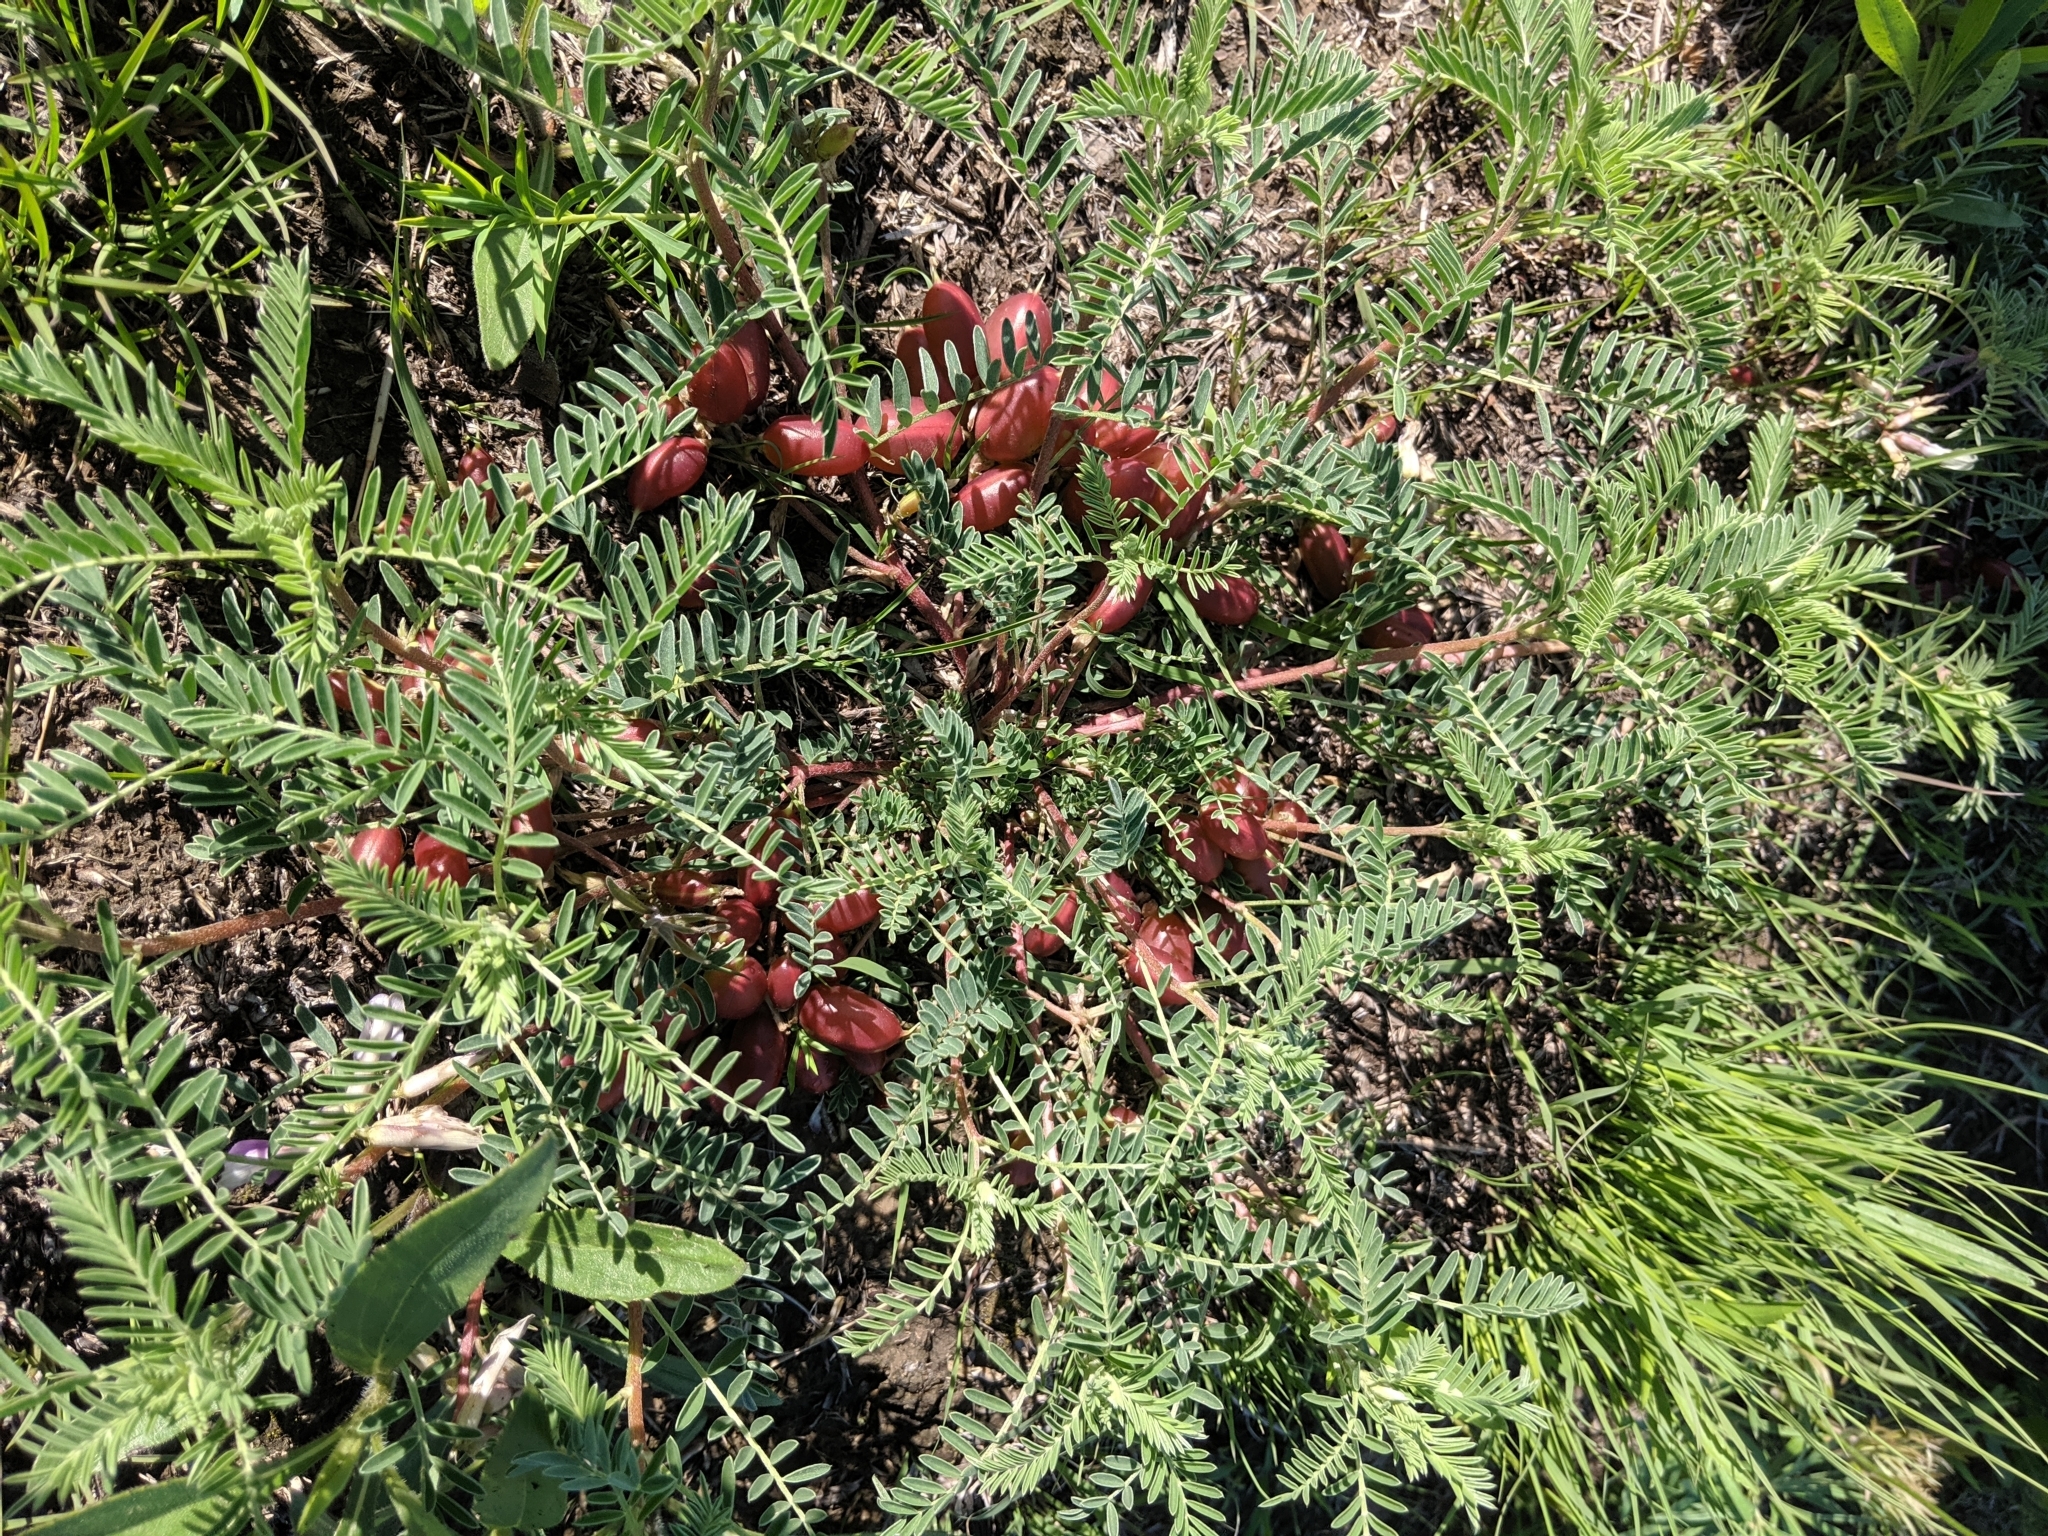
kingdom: Plantae
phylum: Tracheophyta
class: Magnoliopsida
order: Fabales
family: Fabaceae
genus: Astragalus
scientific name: Astragalus crassicarpus
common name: Ground-plum milk-vetch
